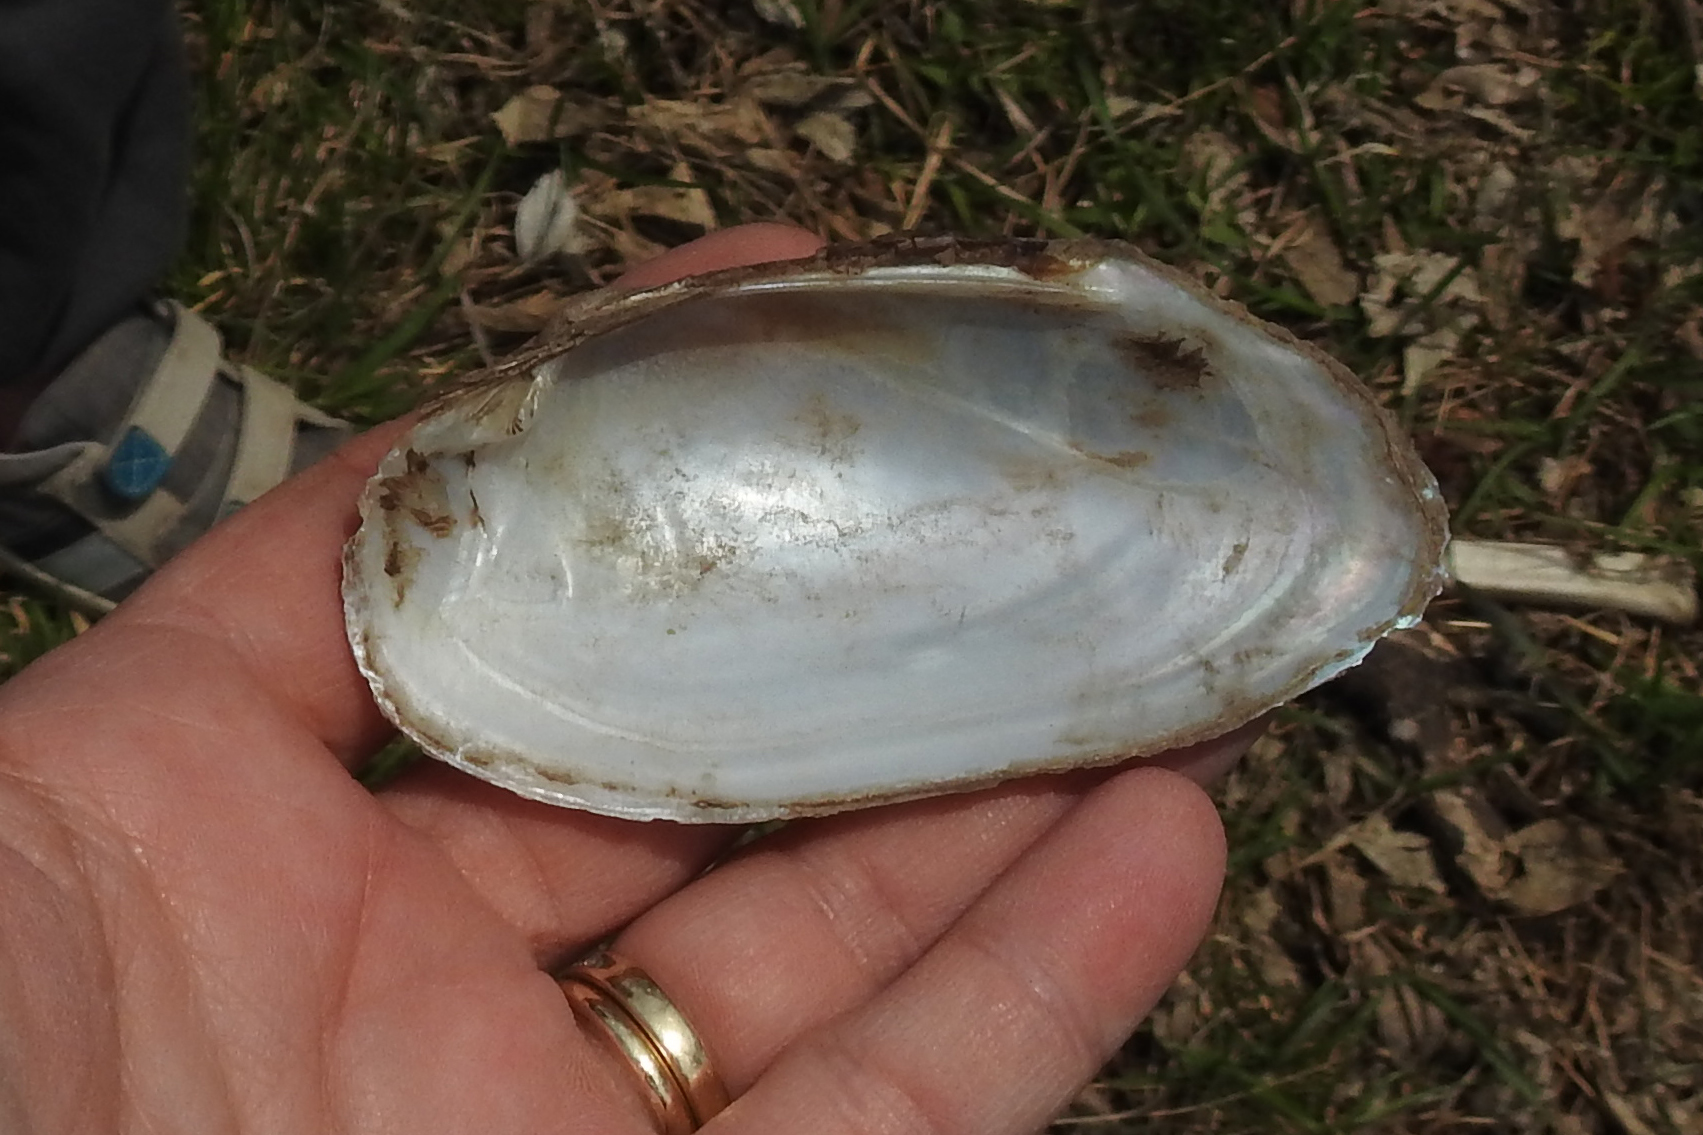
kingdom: Animalia
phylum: Mollusca
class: Bivalvia
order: Unionida
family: Unionidae
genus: Uniomerus
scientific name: Uniomerus tetralasmus
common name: Pondhorn
